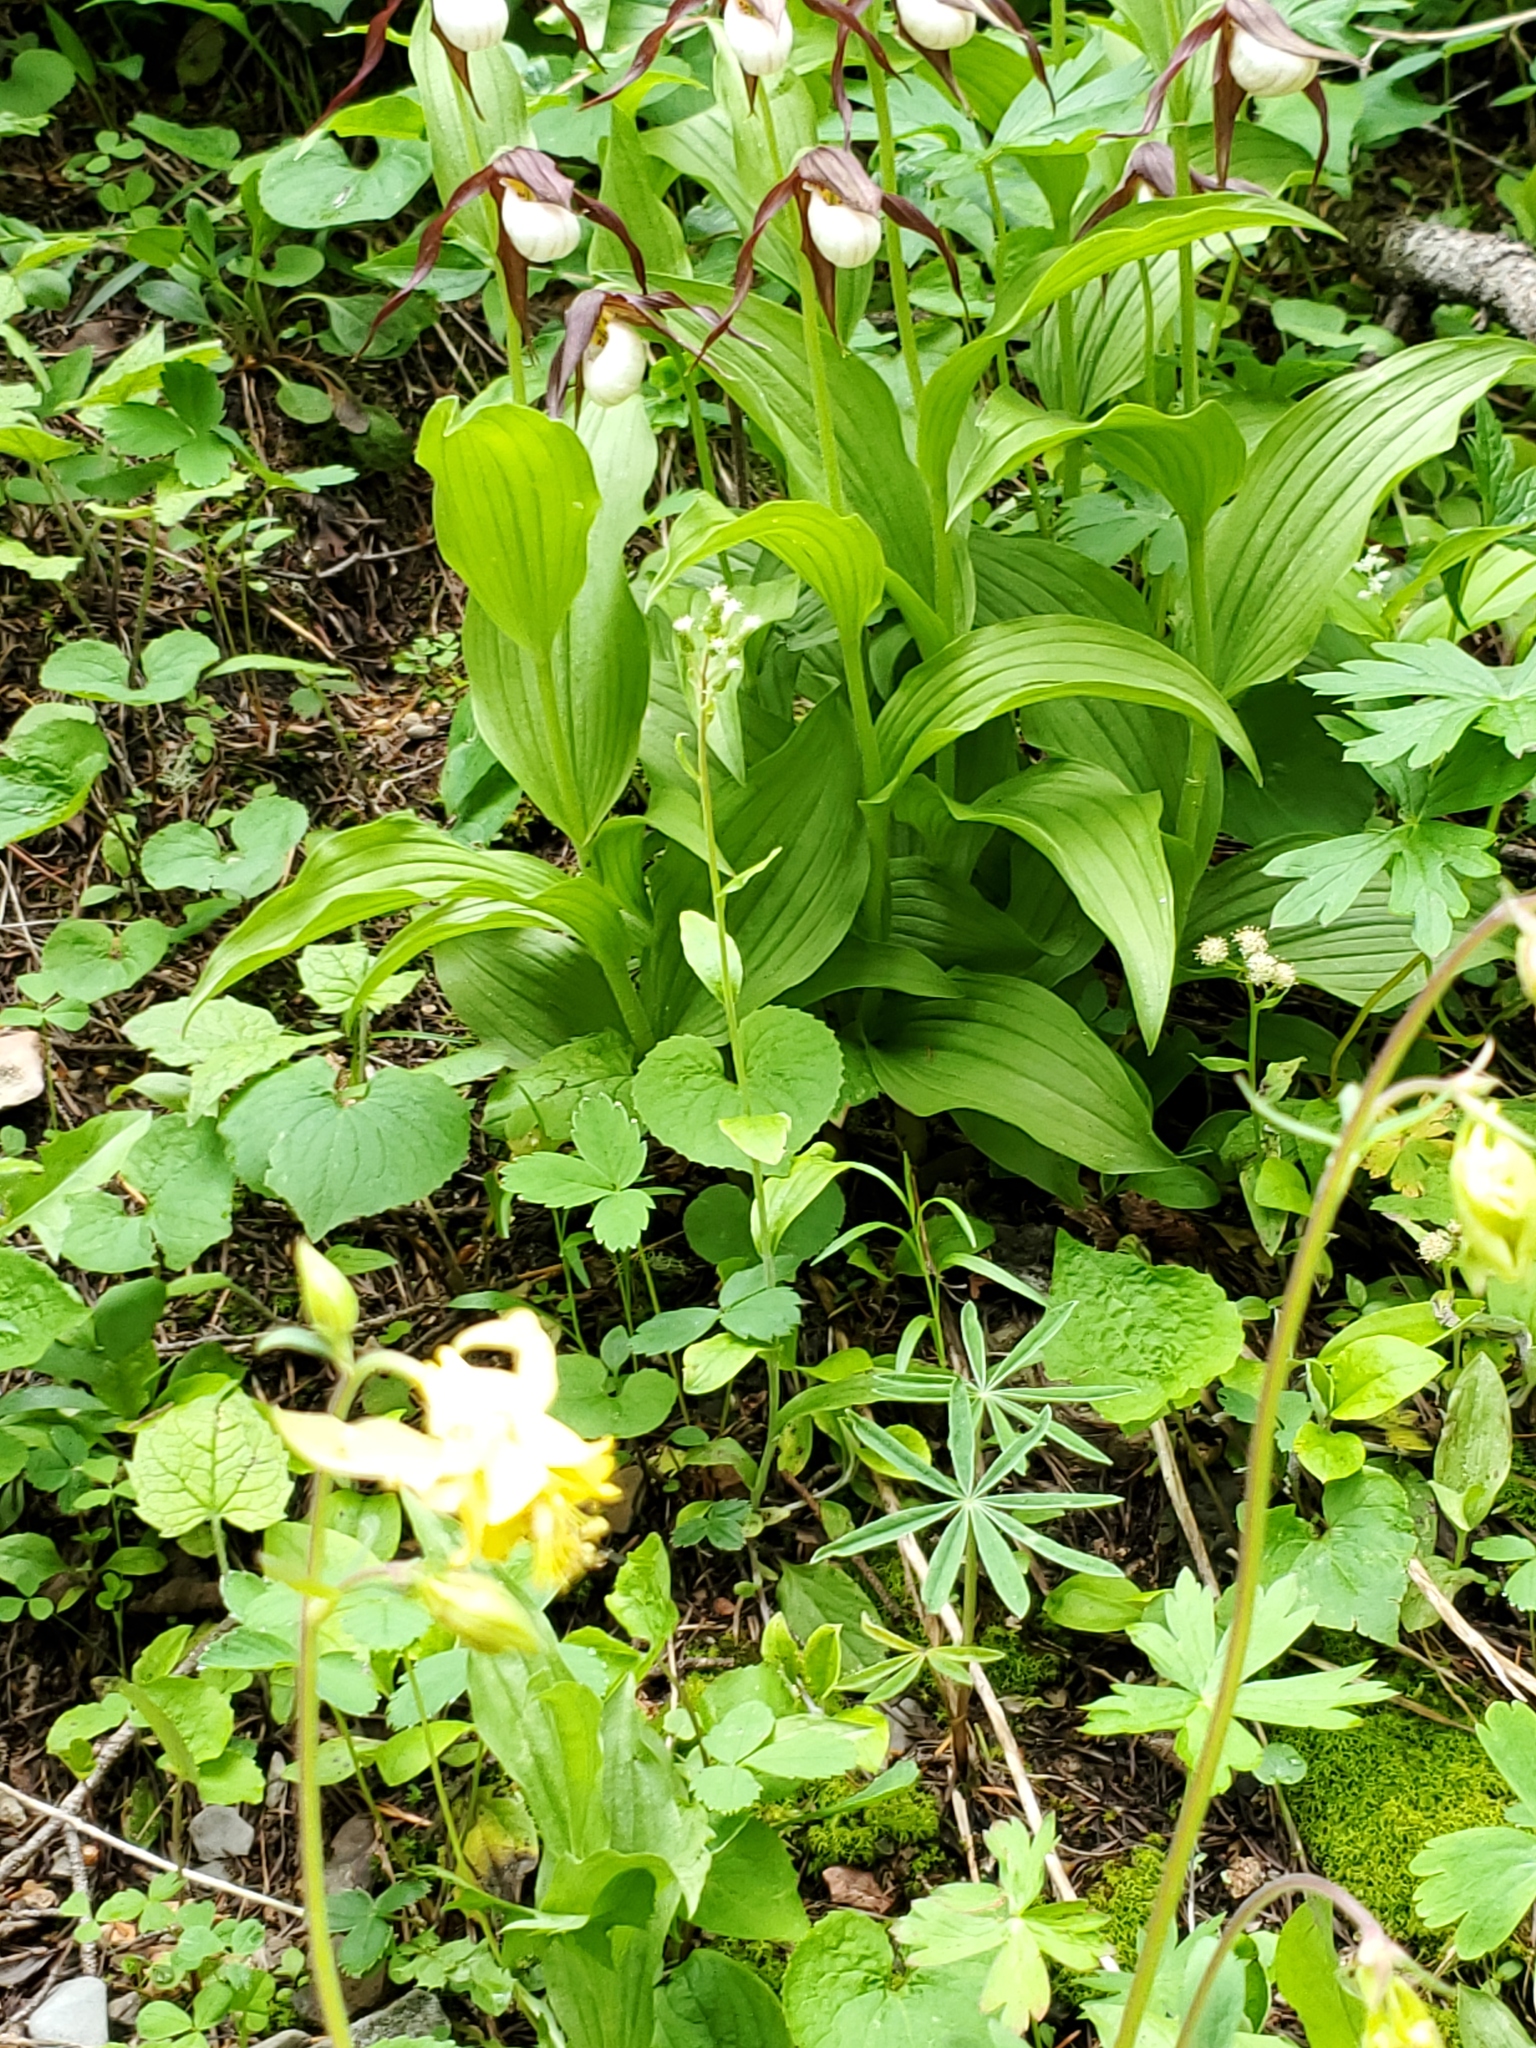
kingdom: Plantae
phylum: Tracheophyta
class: Liliopsida
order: Asparagales
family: Orchidaceae
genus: Cypripedium
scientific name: Cypripedium montanum
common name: Mountain lady's-slipper
